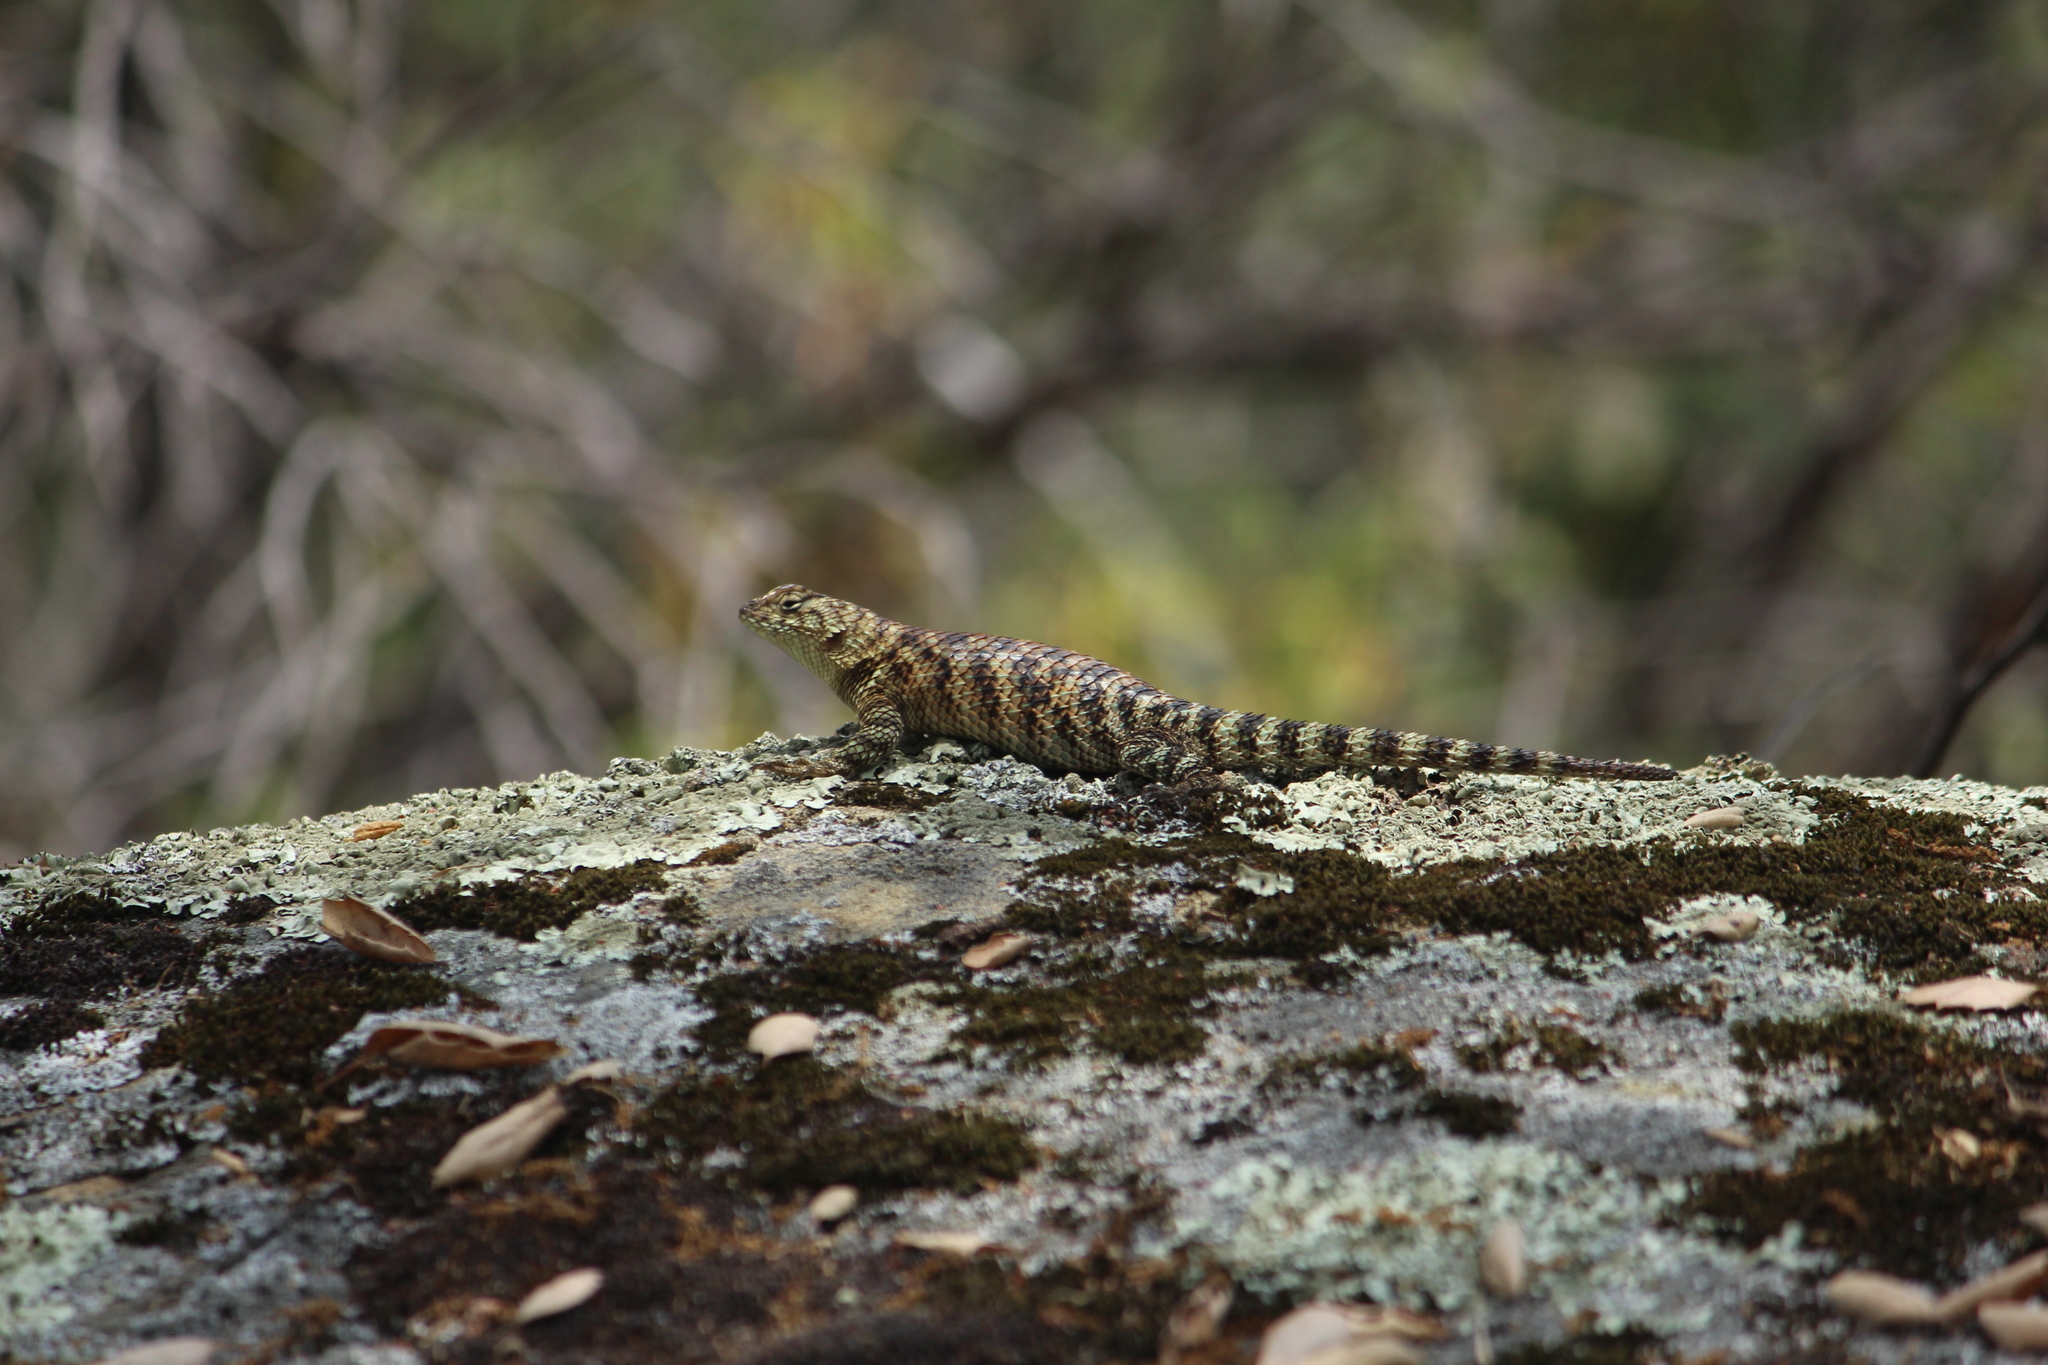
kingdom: Animalia
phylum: Chordata
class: Squamata
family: Phrynosomatidae
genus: Sceloporus
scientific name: Sceloporus orcutti
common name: Granite spiny lizard
